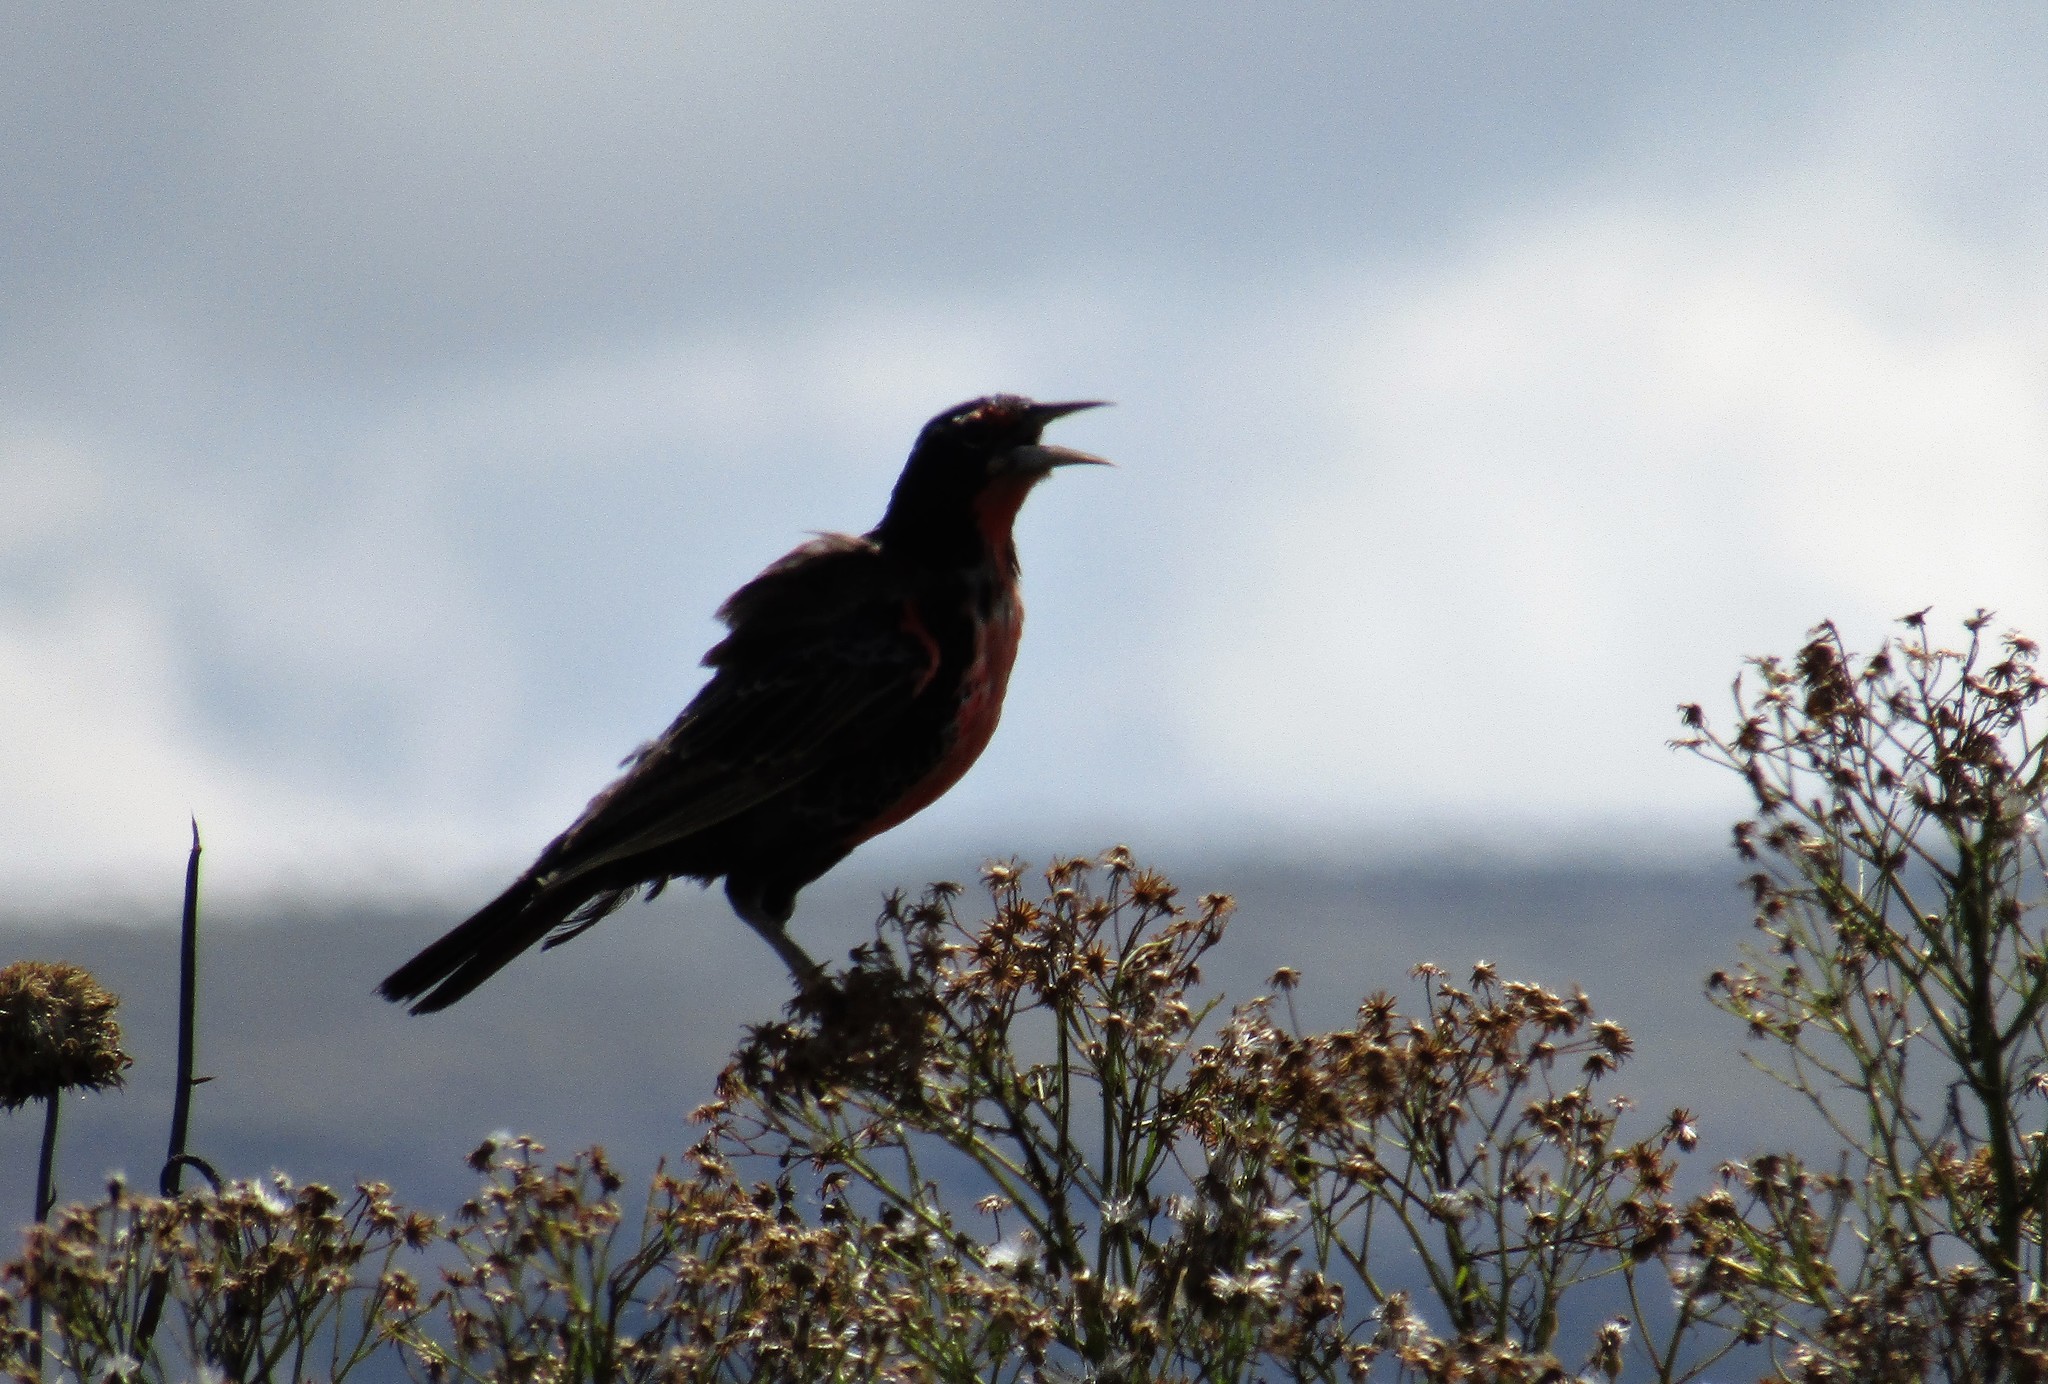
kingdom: Animalia
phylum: Chordata
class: Aves
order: Passeriformes
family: Icteridae
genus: Sturnella
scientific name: Sturnella loyca
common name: Long-tailed meadowlark
